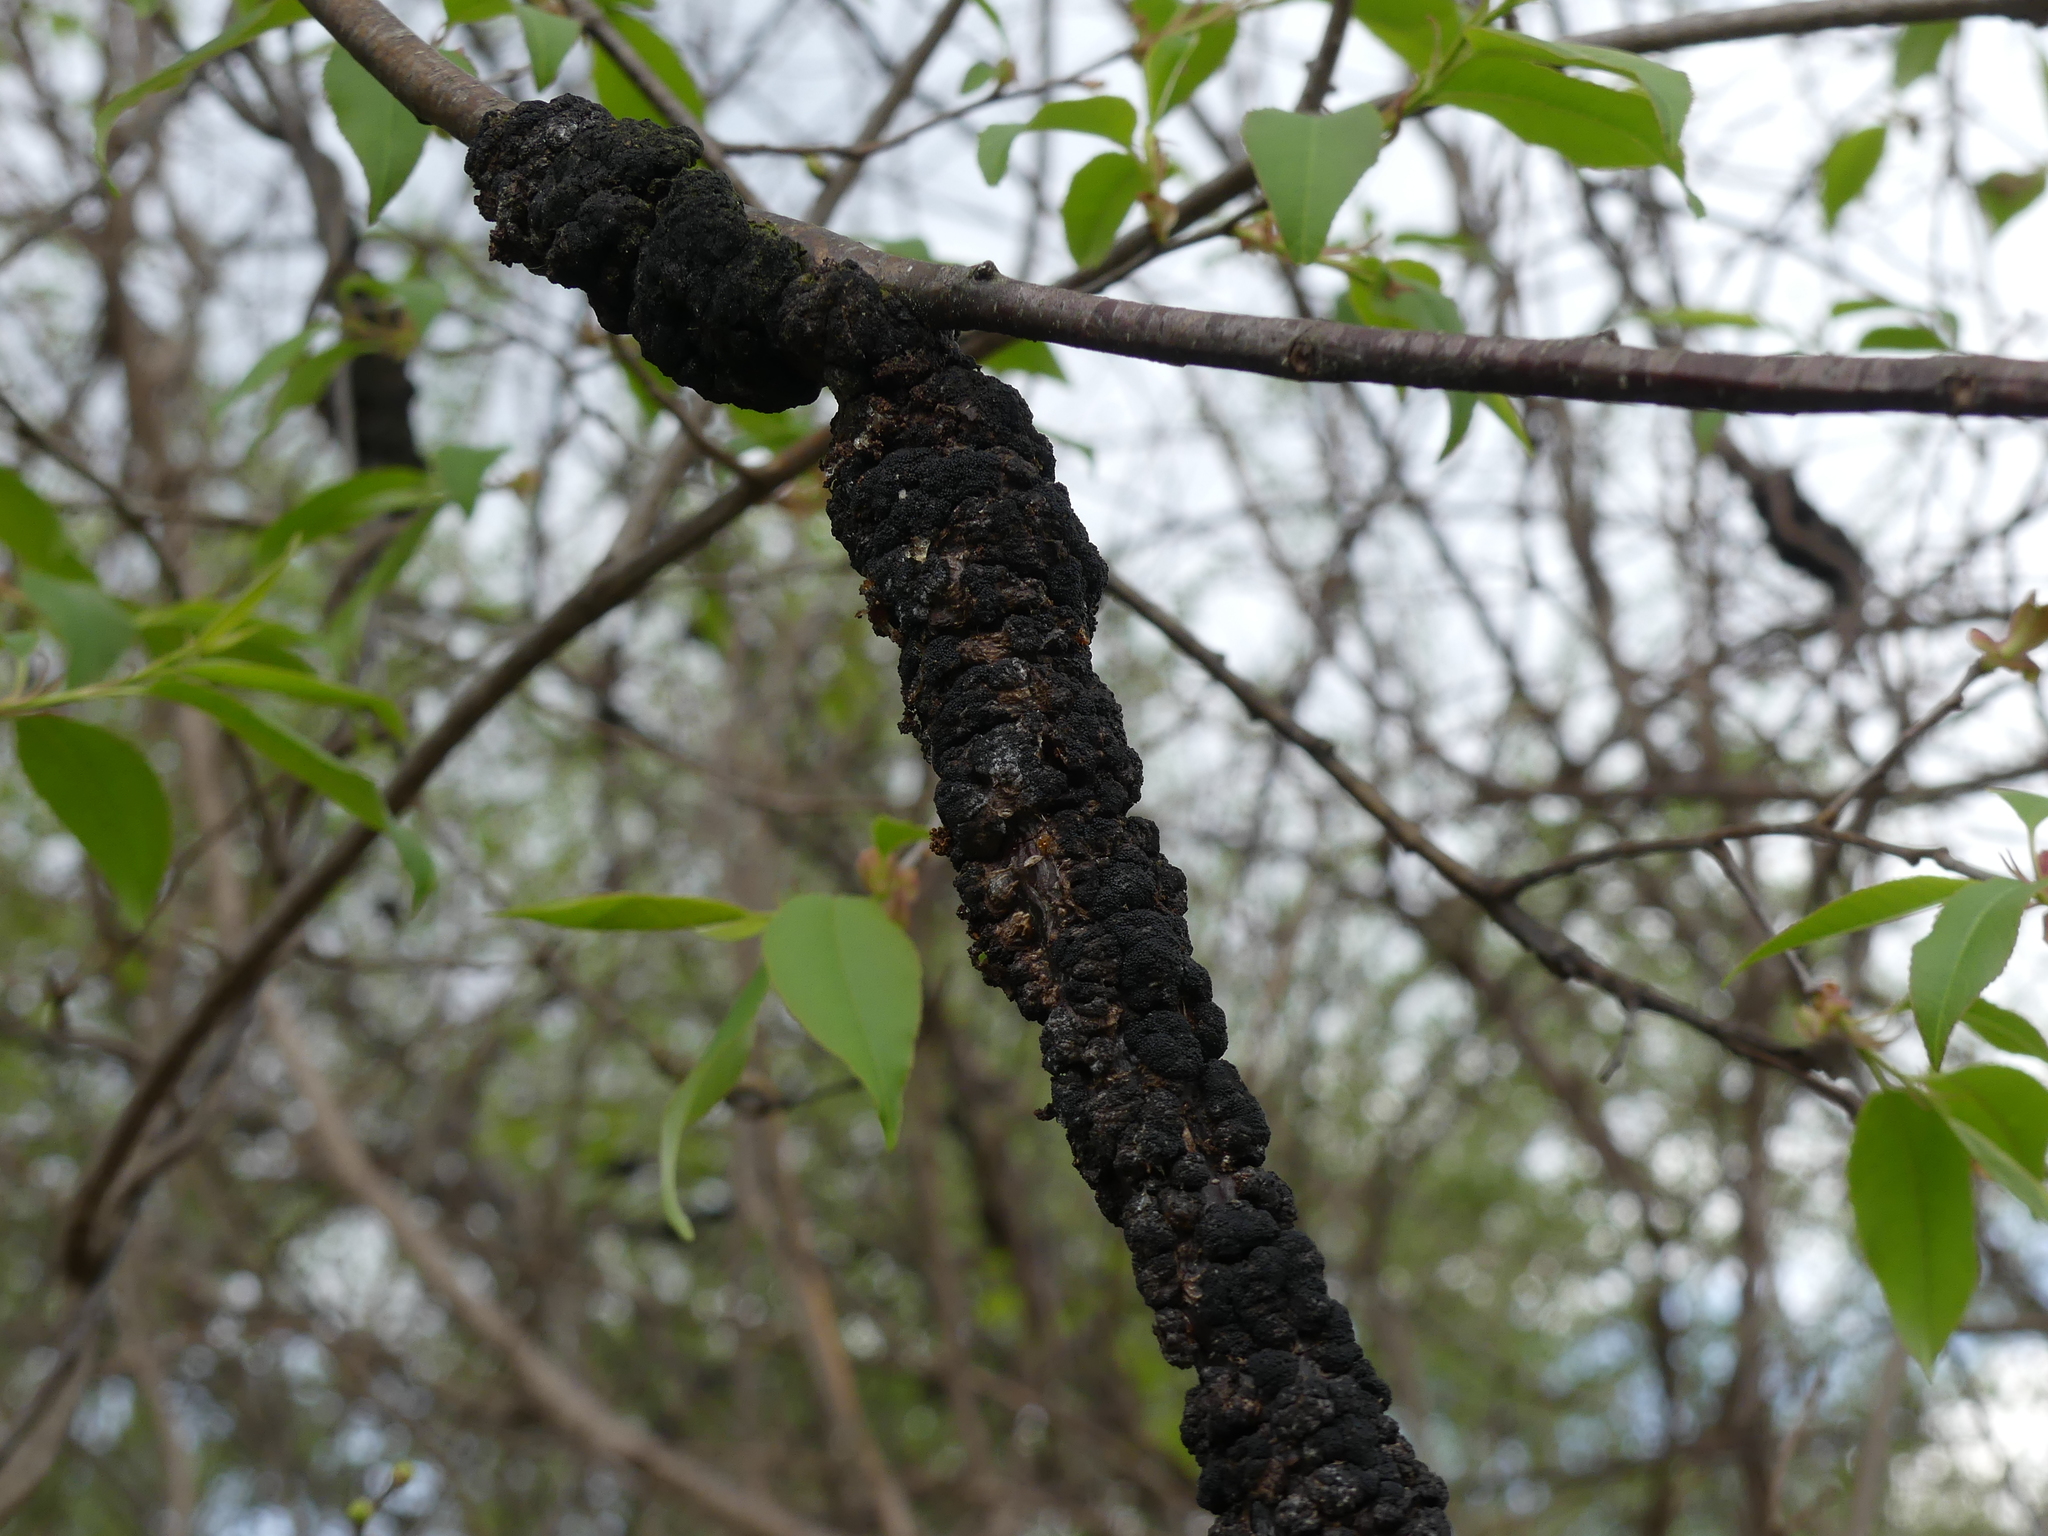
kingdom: Fungi
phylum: Ascomycota
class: Dothideomycetes
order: Venturiales
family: Venturiaceae
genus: Apiosporina
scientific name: Apiosporina morbosa
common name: Black knot
